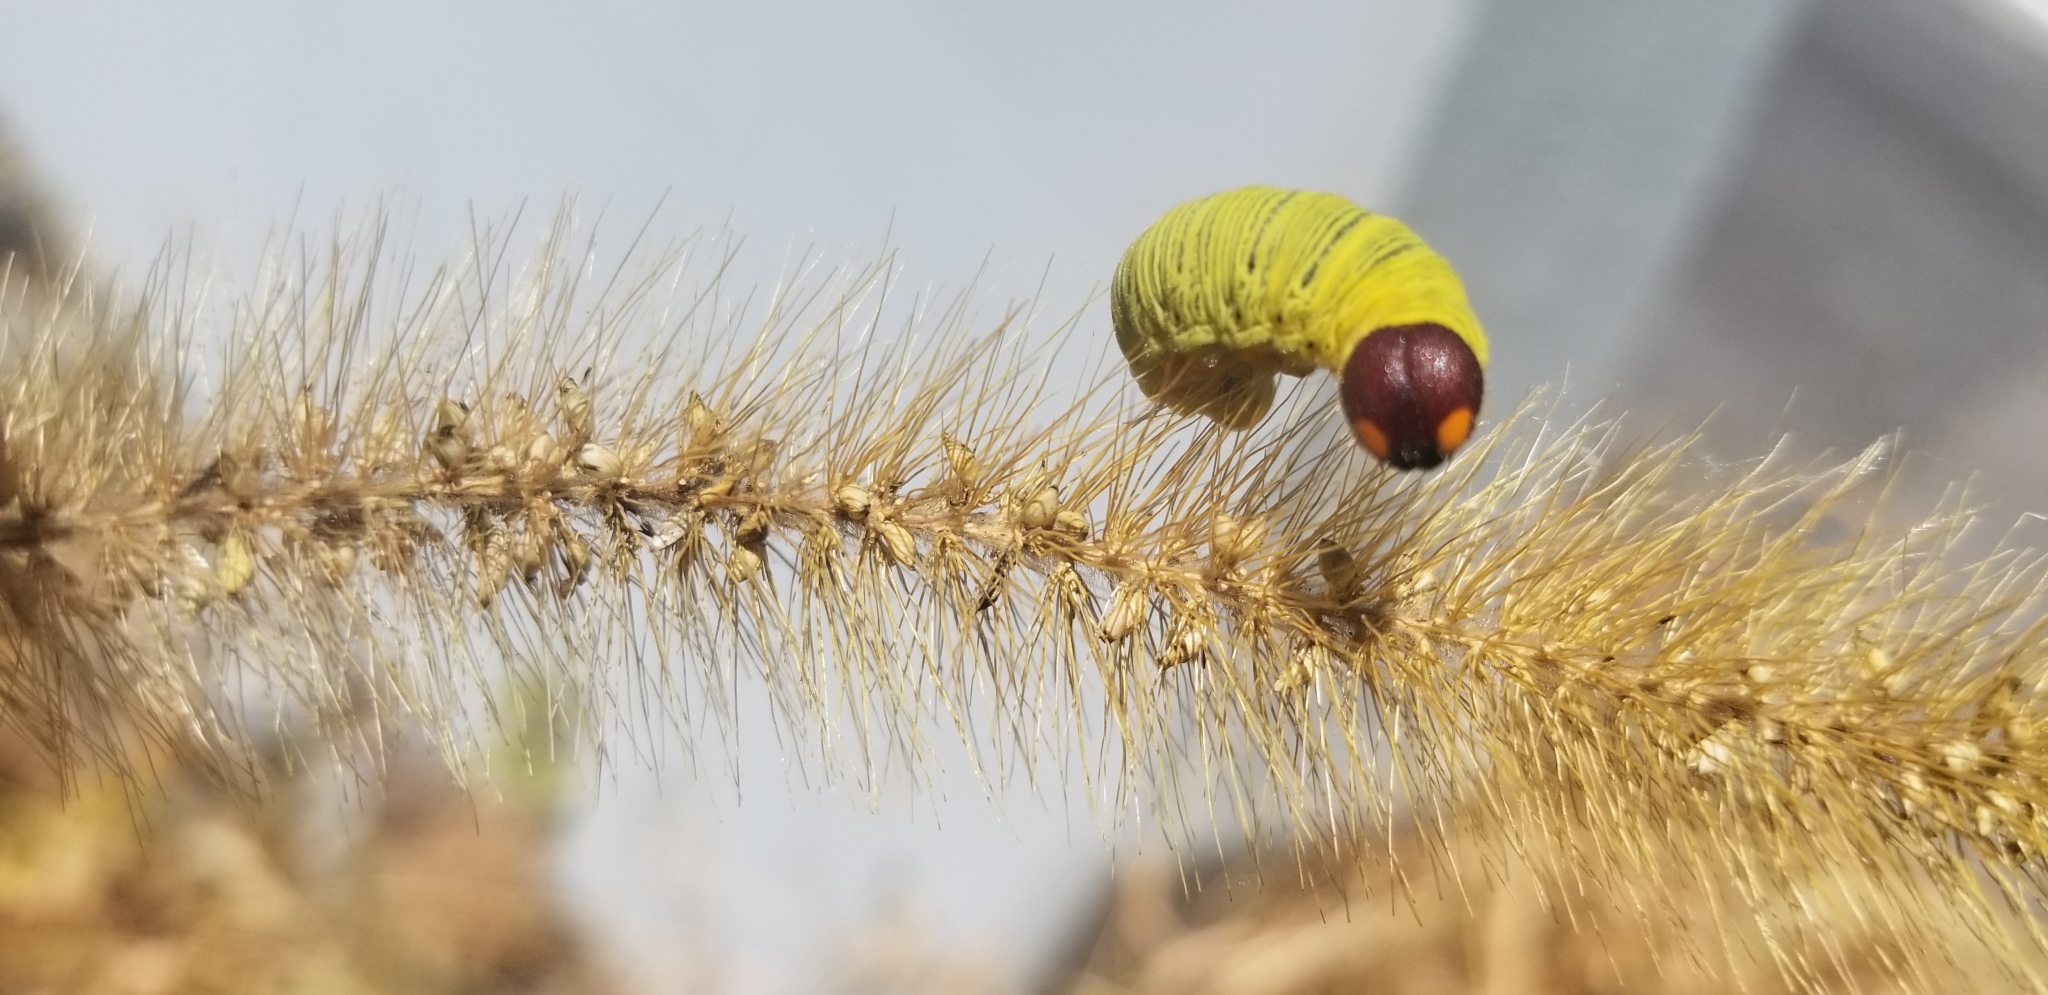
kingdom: Animalia
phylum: Arthropoda
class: Insecta
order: Lepidoptera
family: Hesperiidae
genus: Epargyreus
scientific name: Epargyreus clarus
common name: Silver-spotted skipper
